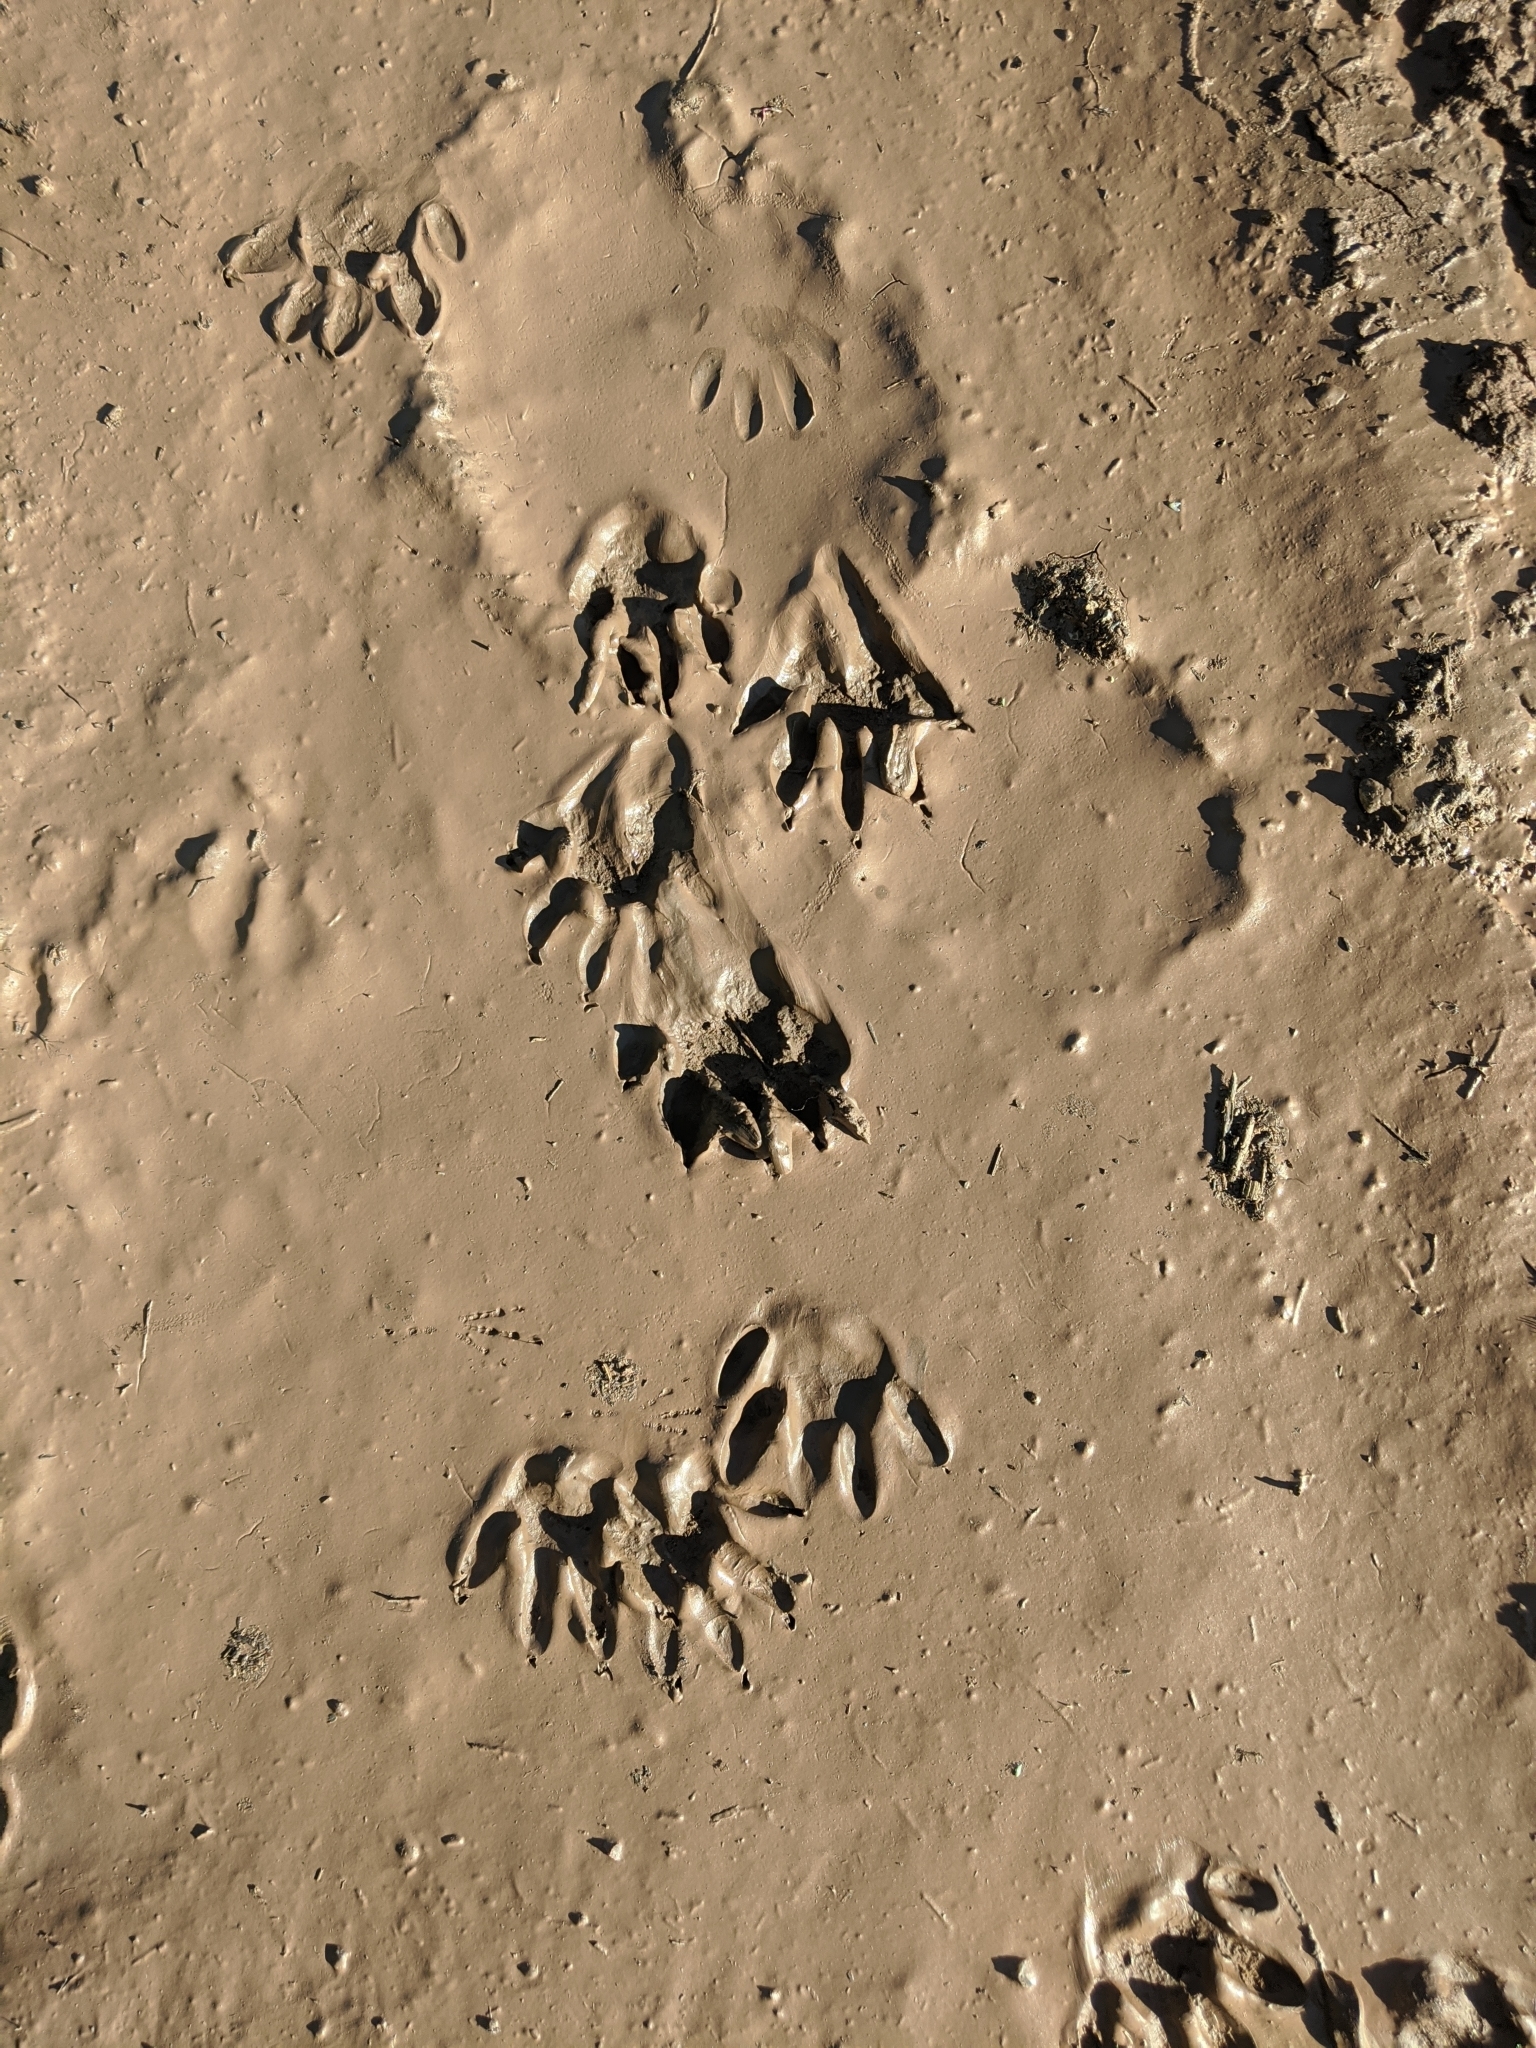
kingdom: Animalia
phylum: Chordata
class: Mammalia
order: Carnivora
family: Procyonidae
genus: Procyon
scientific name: Procyon lotor
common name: Raccoon
